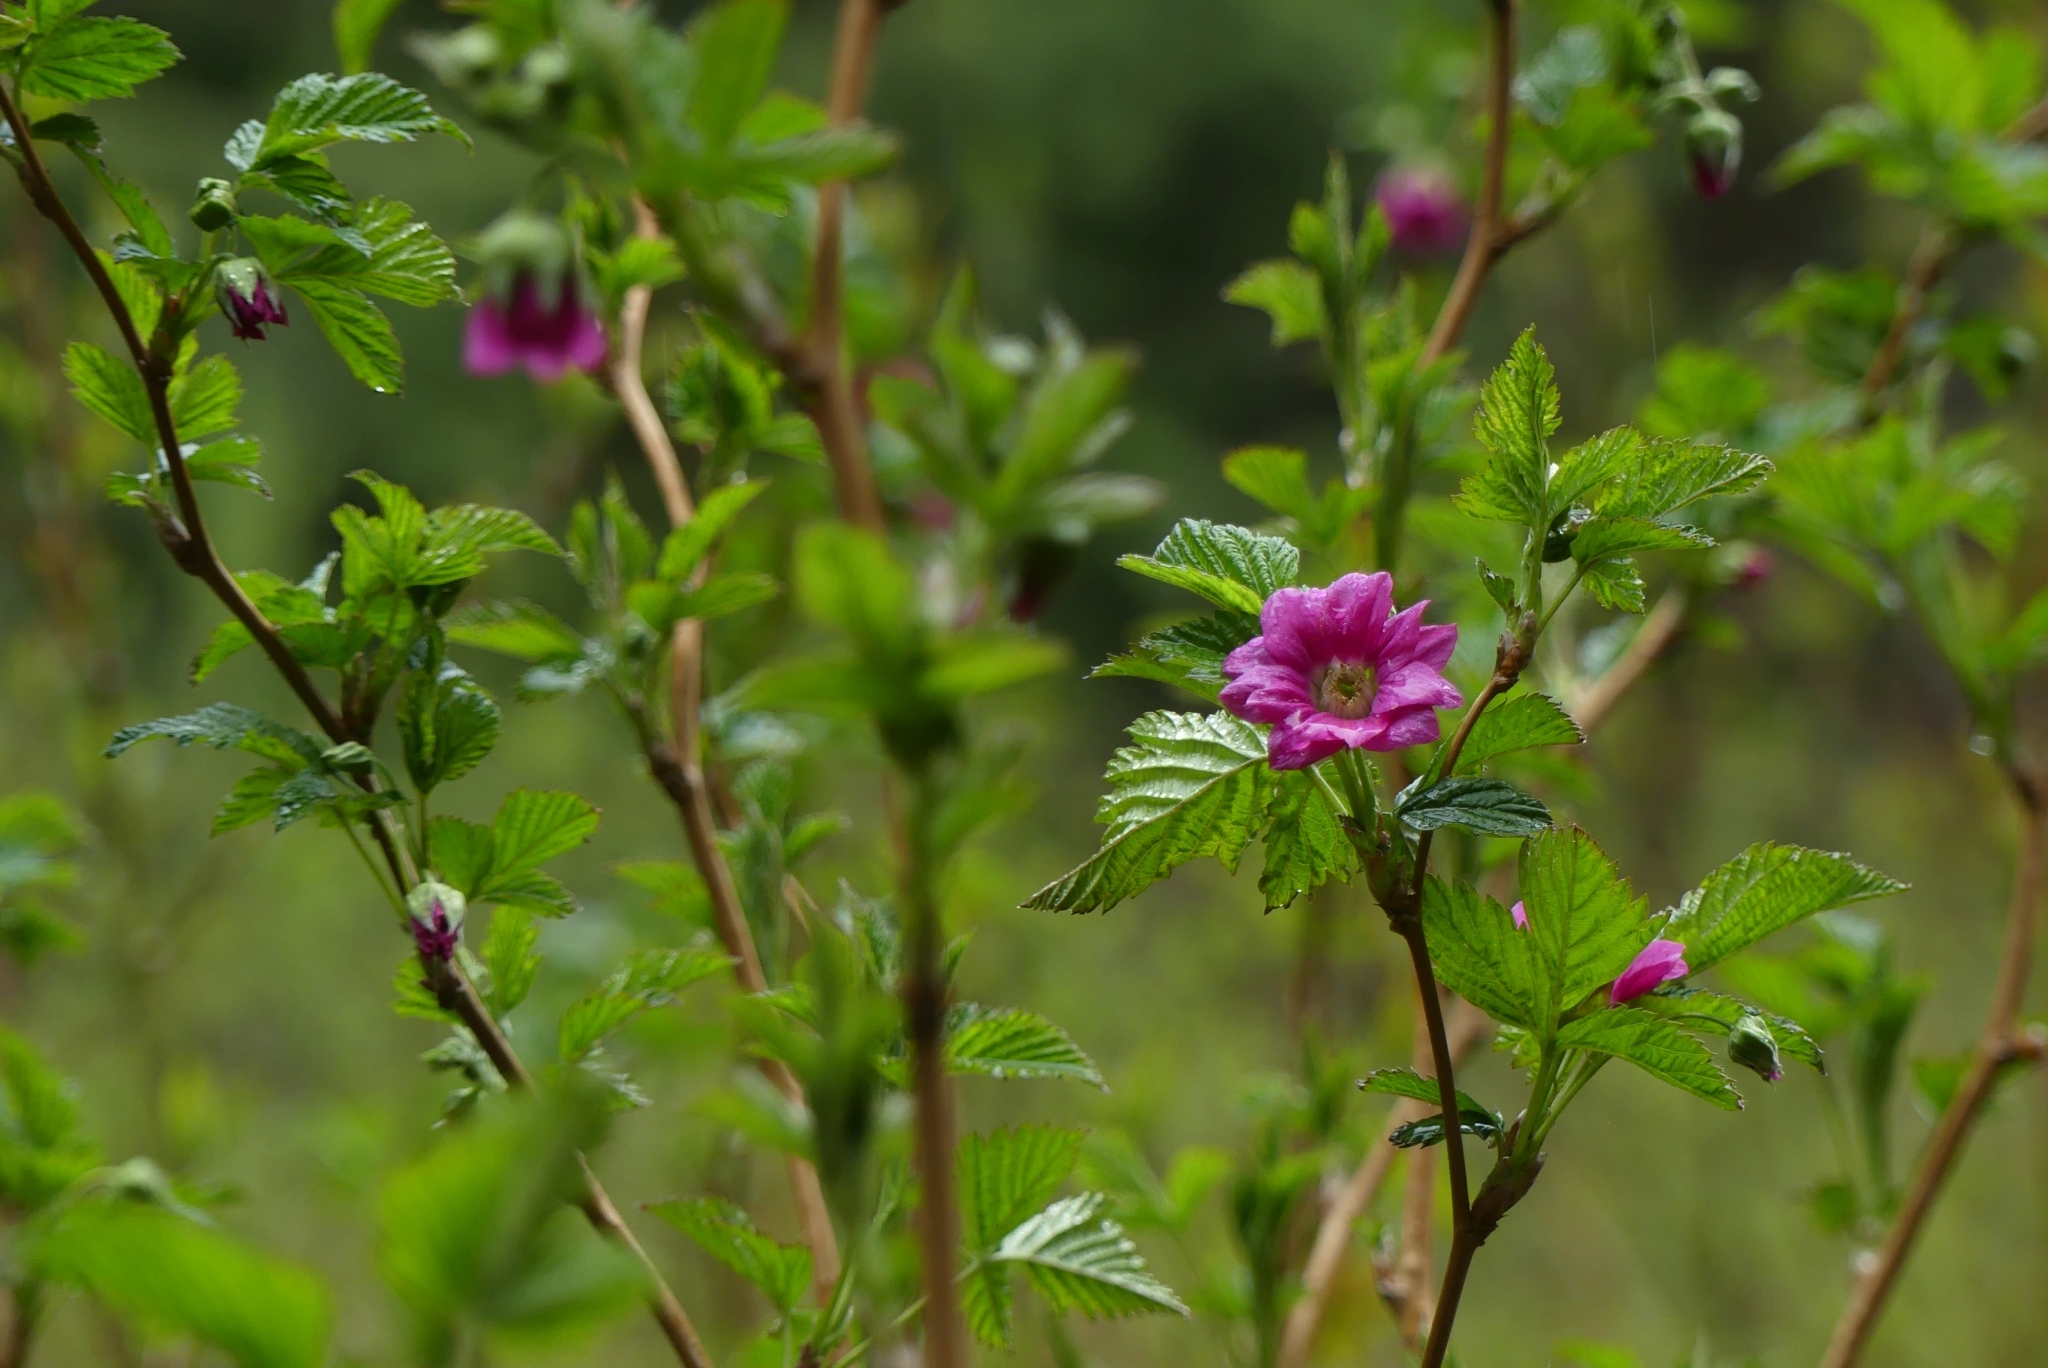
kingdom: Plantae
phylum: Tracheophyta
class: Magnoliopsida
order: Rosales
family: Rosaceae
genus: Rubus
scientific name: Rubus spectabilis
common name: Salmonberry
